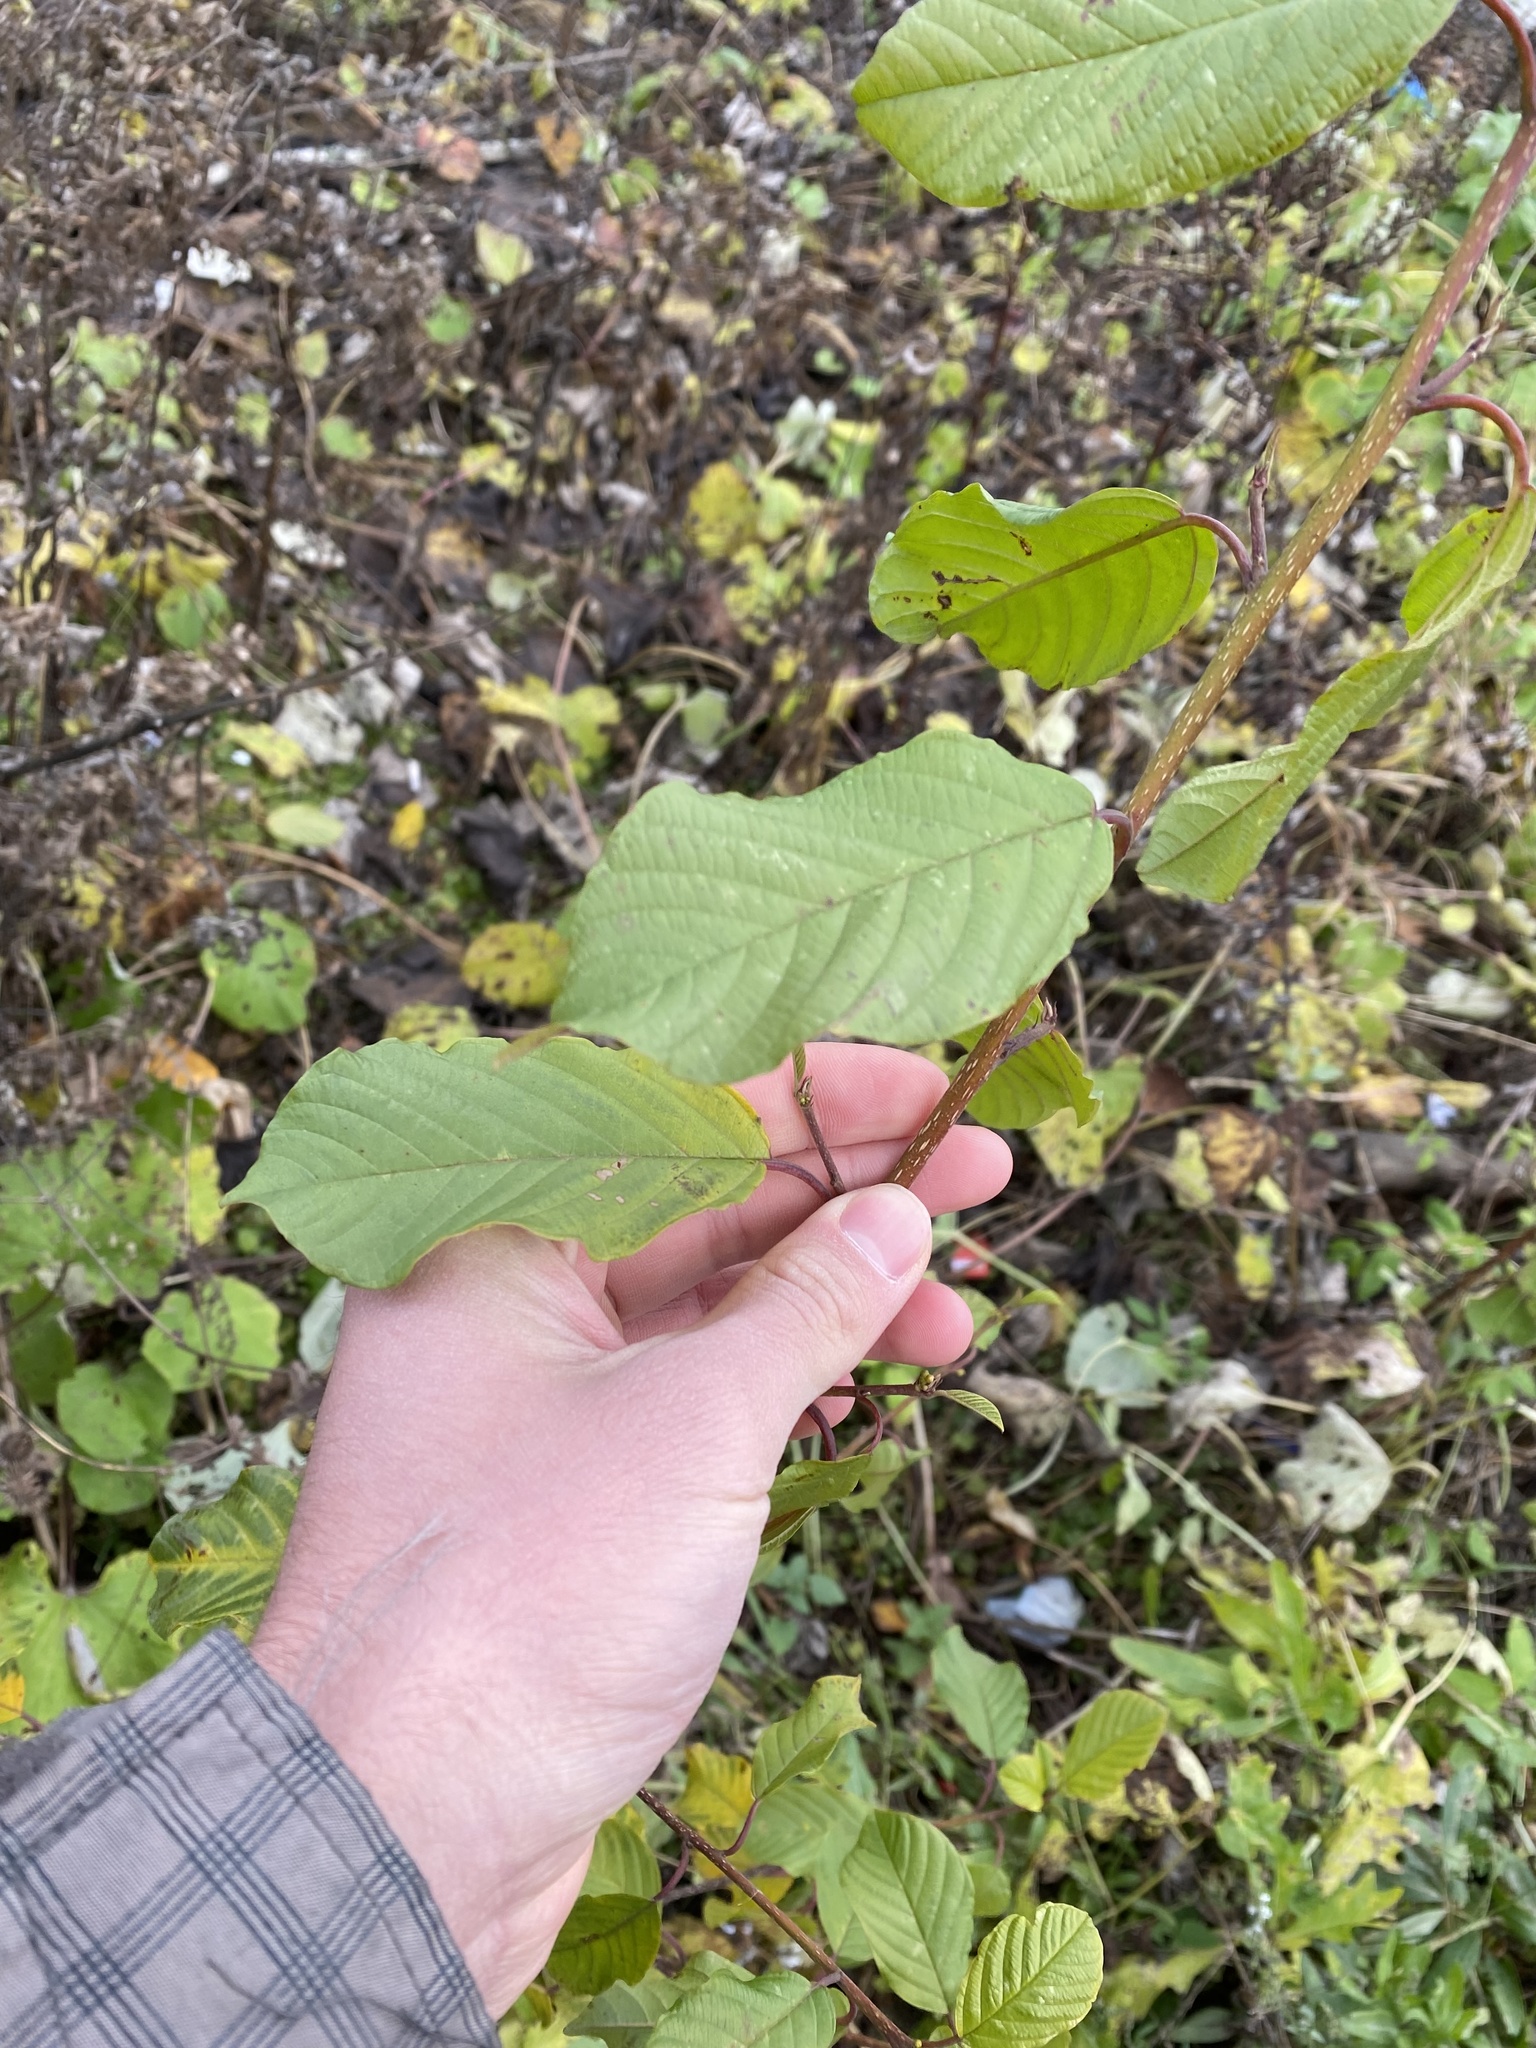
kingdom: Plantae
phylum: Tracheophyta
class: Magnoliopsida
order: Rosales
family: Rhamnaceae
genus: Frangula
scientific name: Frangula alnus
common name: Alder buckthorn
